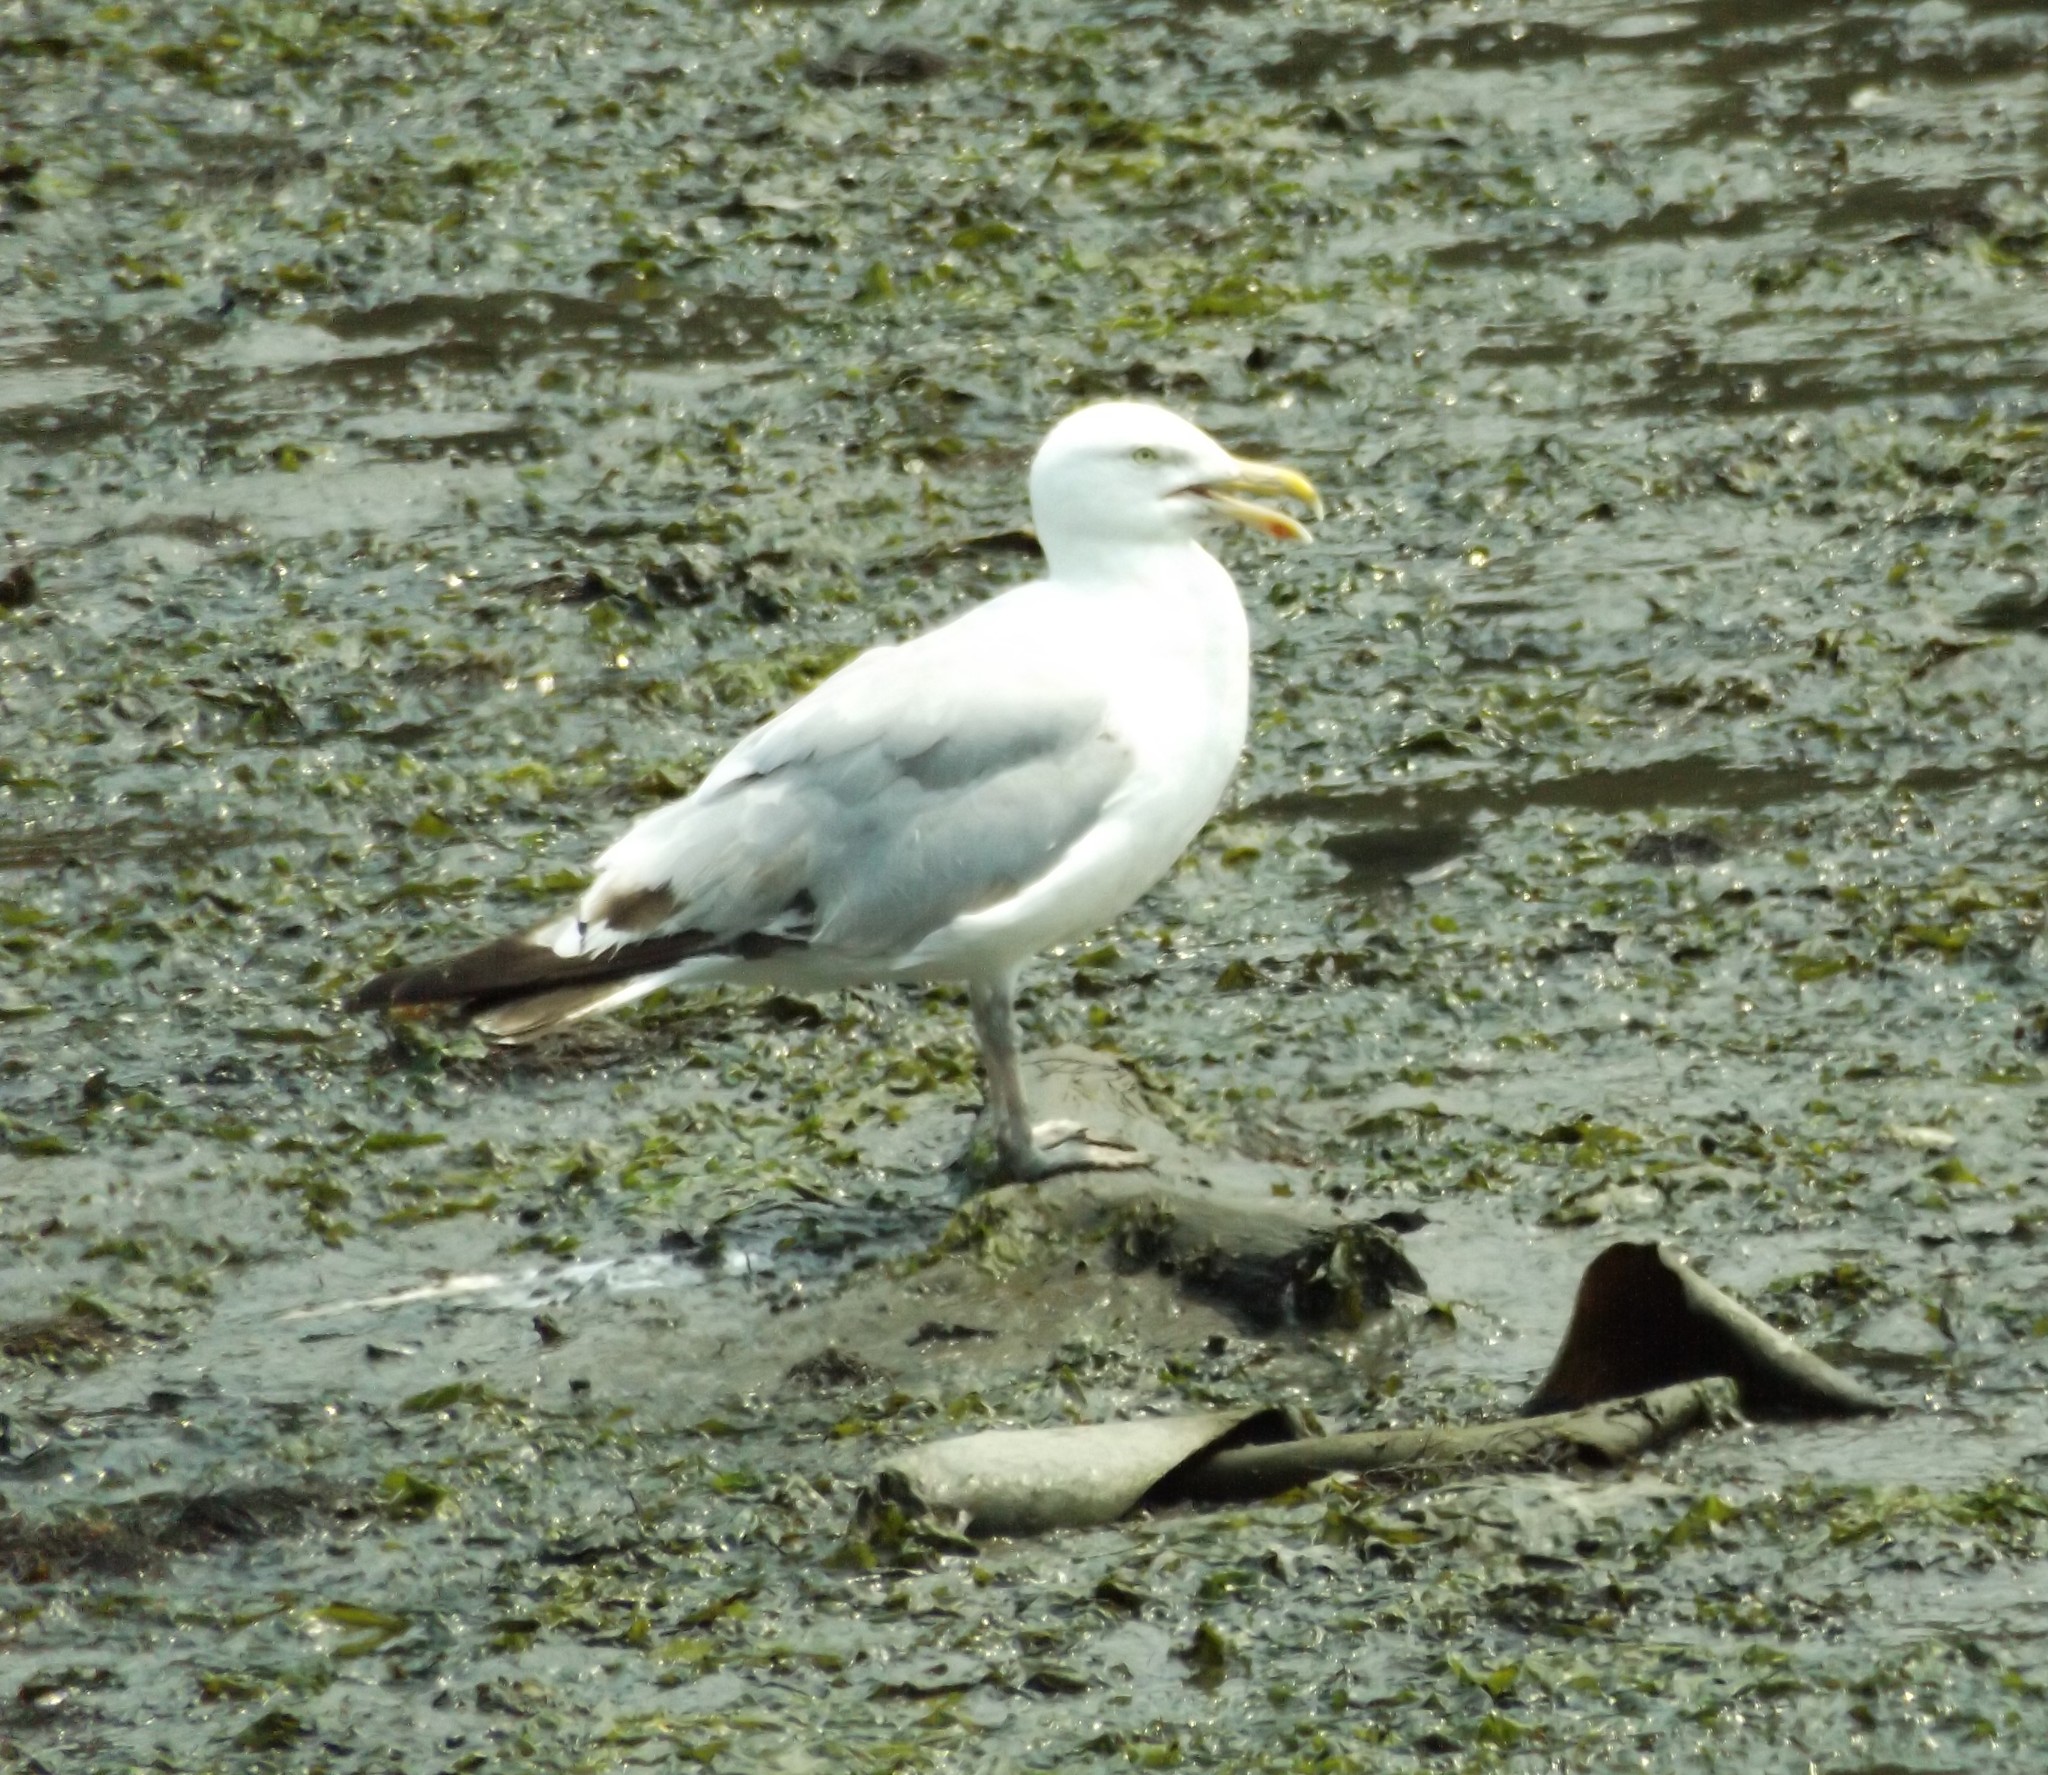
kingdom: Animalia
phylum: Chordata
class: Aves
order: Charadriiformes
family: Laridae
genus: Larus
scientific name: Larus argentatus
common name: Herring gull
